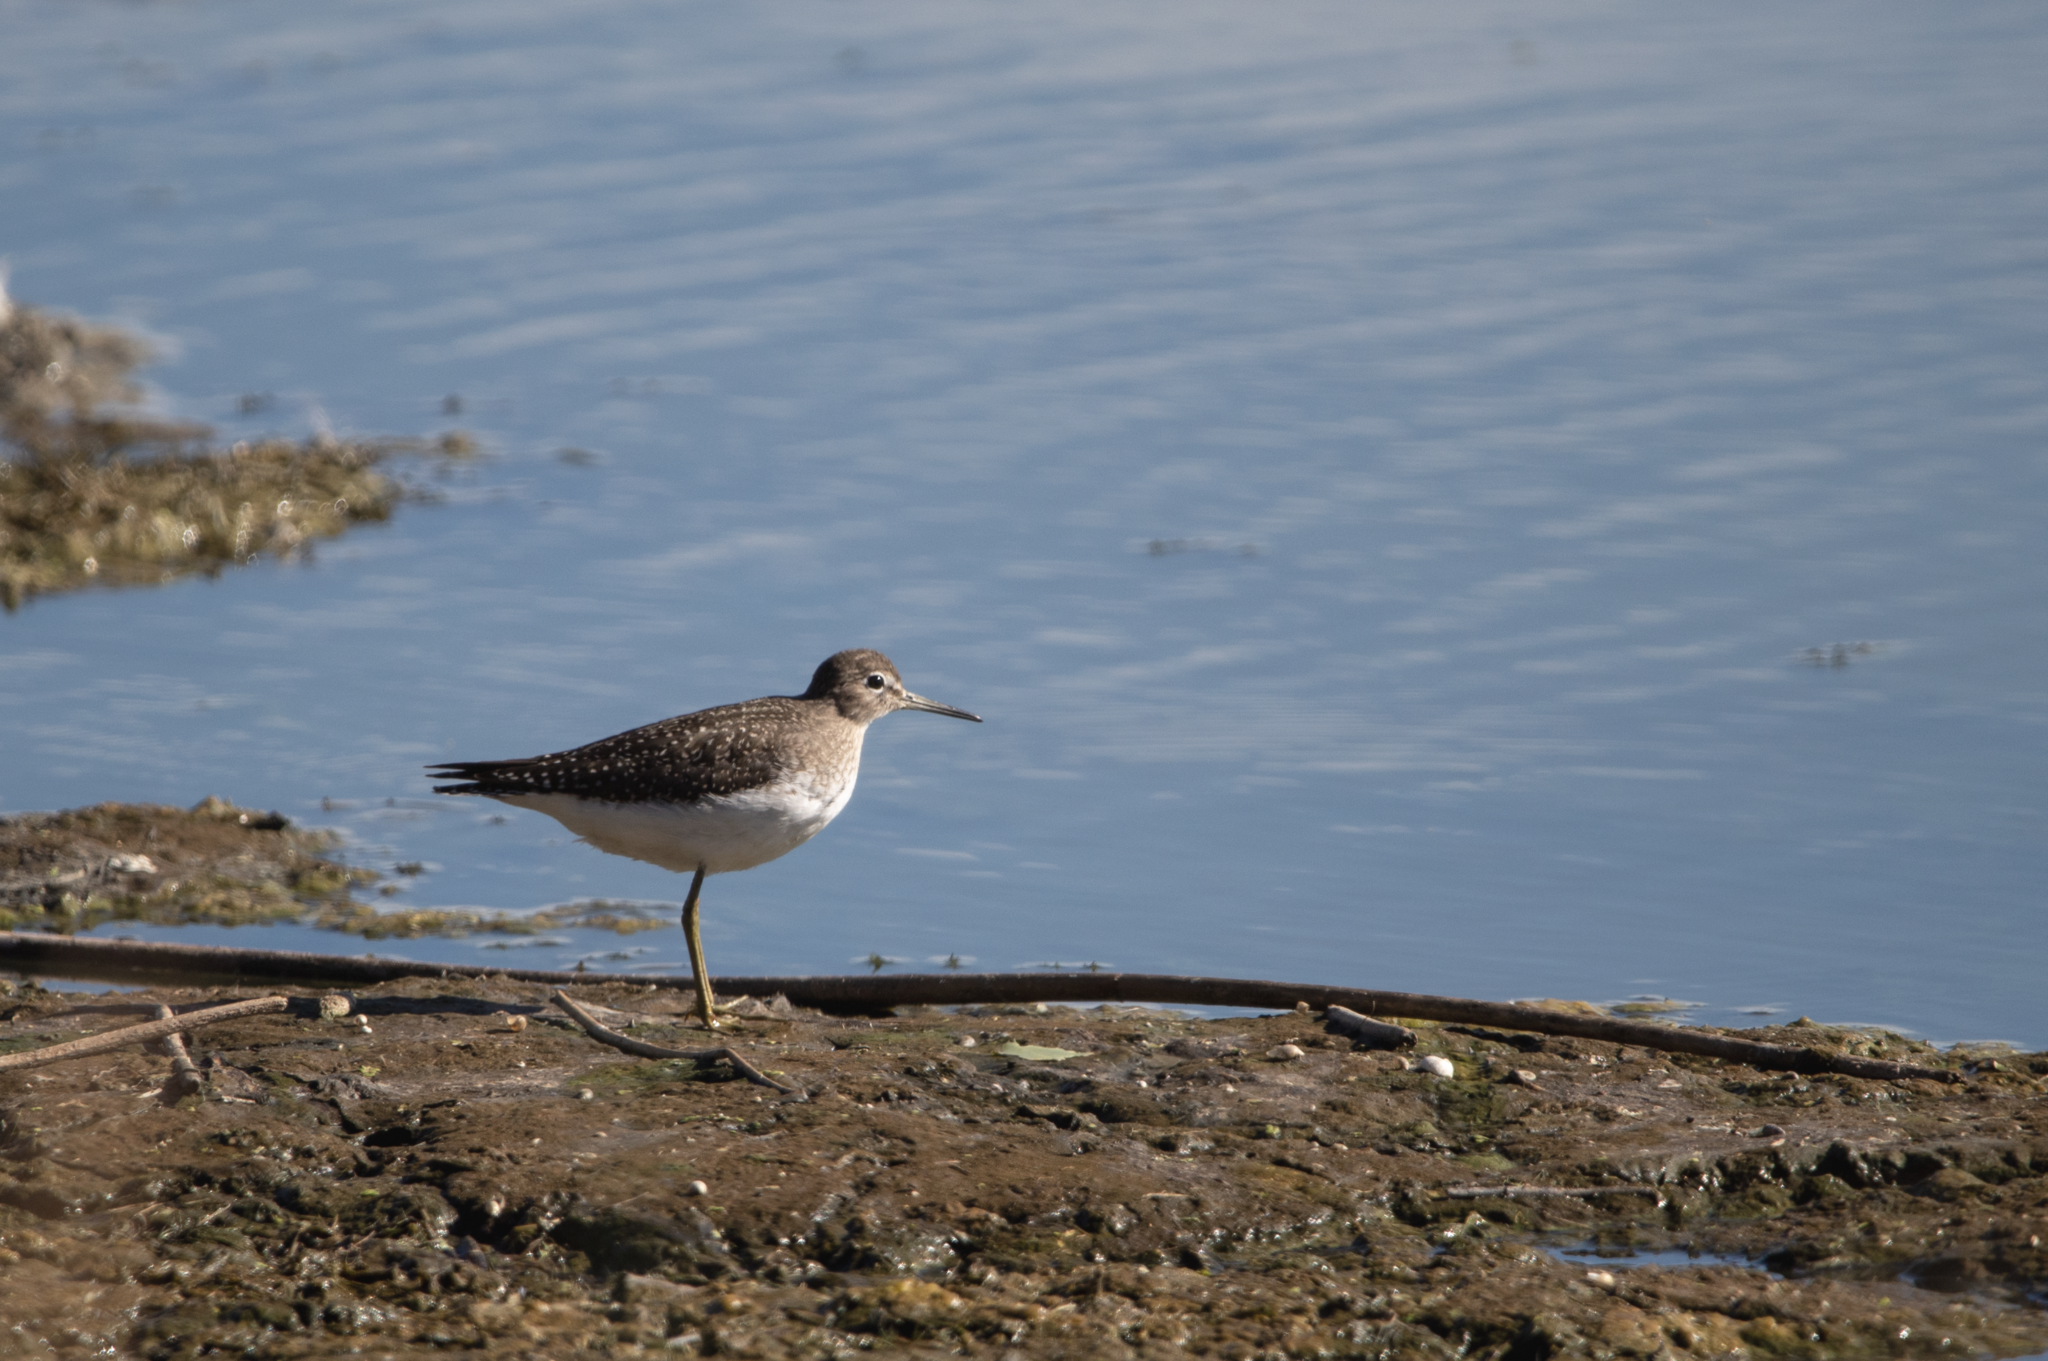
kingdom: Animalia
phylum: Chordata
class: Aves
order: Charadriiformes
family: Scolopacidae
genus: Tringa
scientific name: Tringa solitaria
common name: Solitary sandpiper
